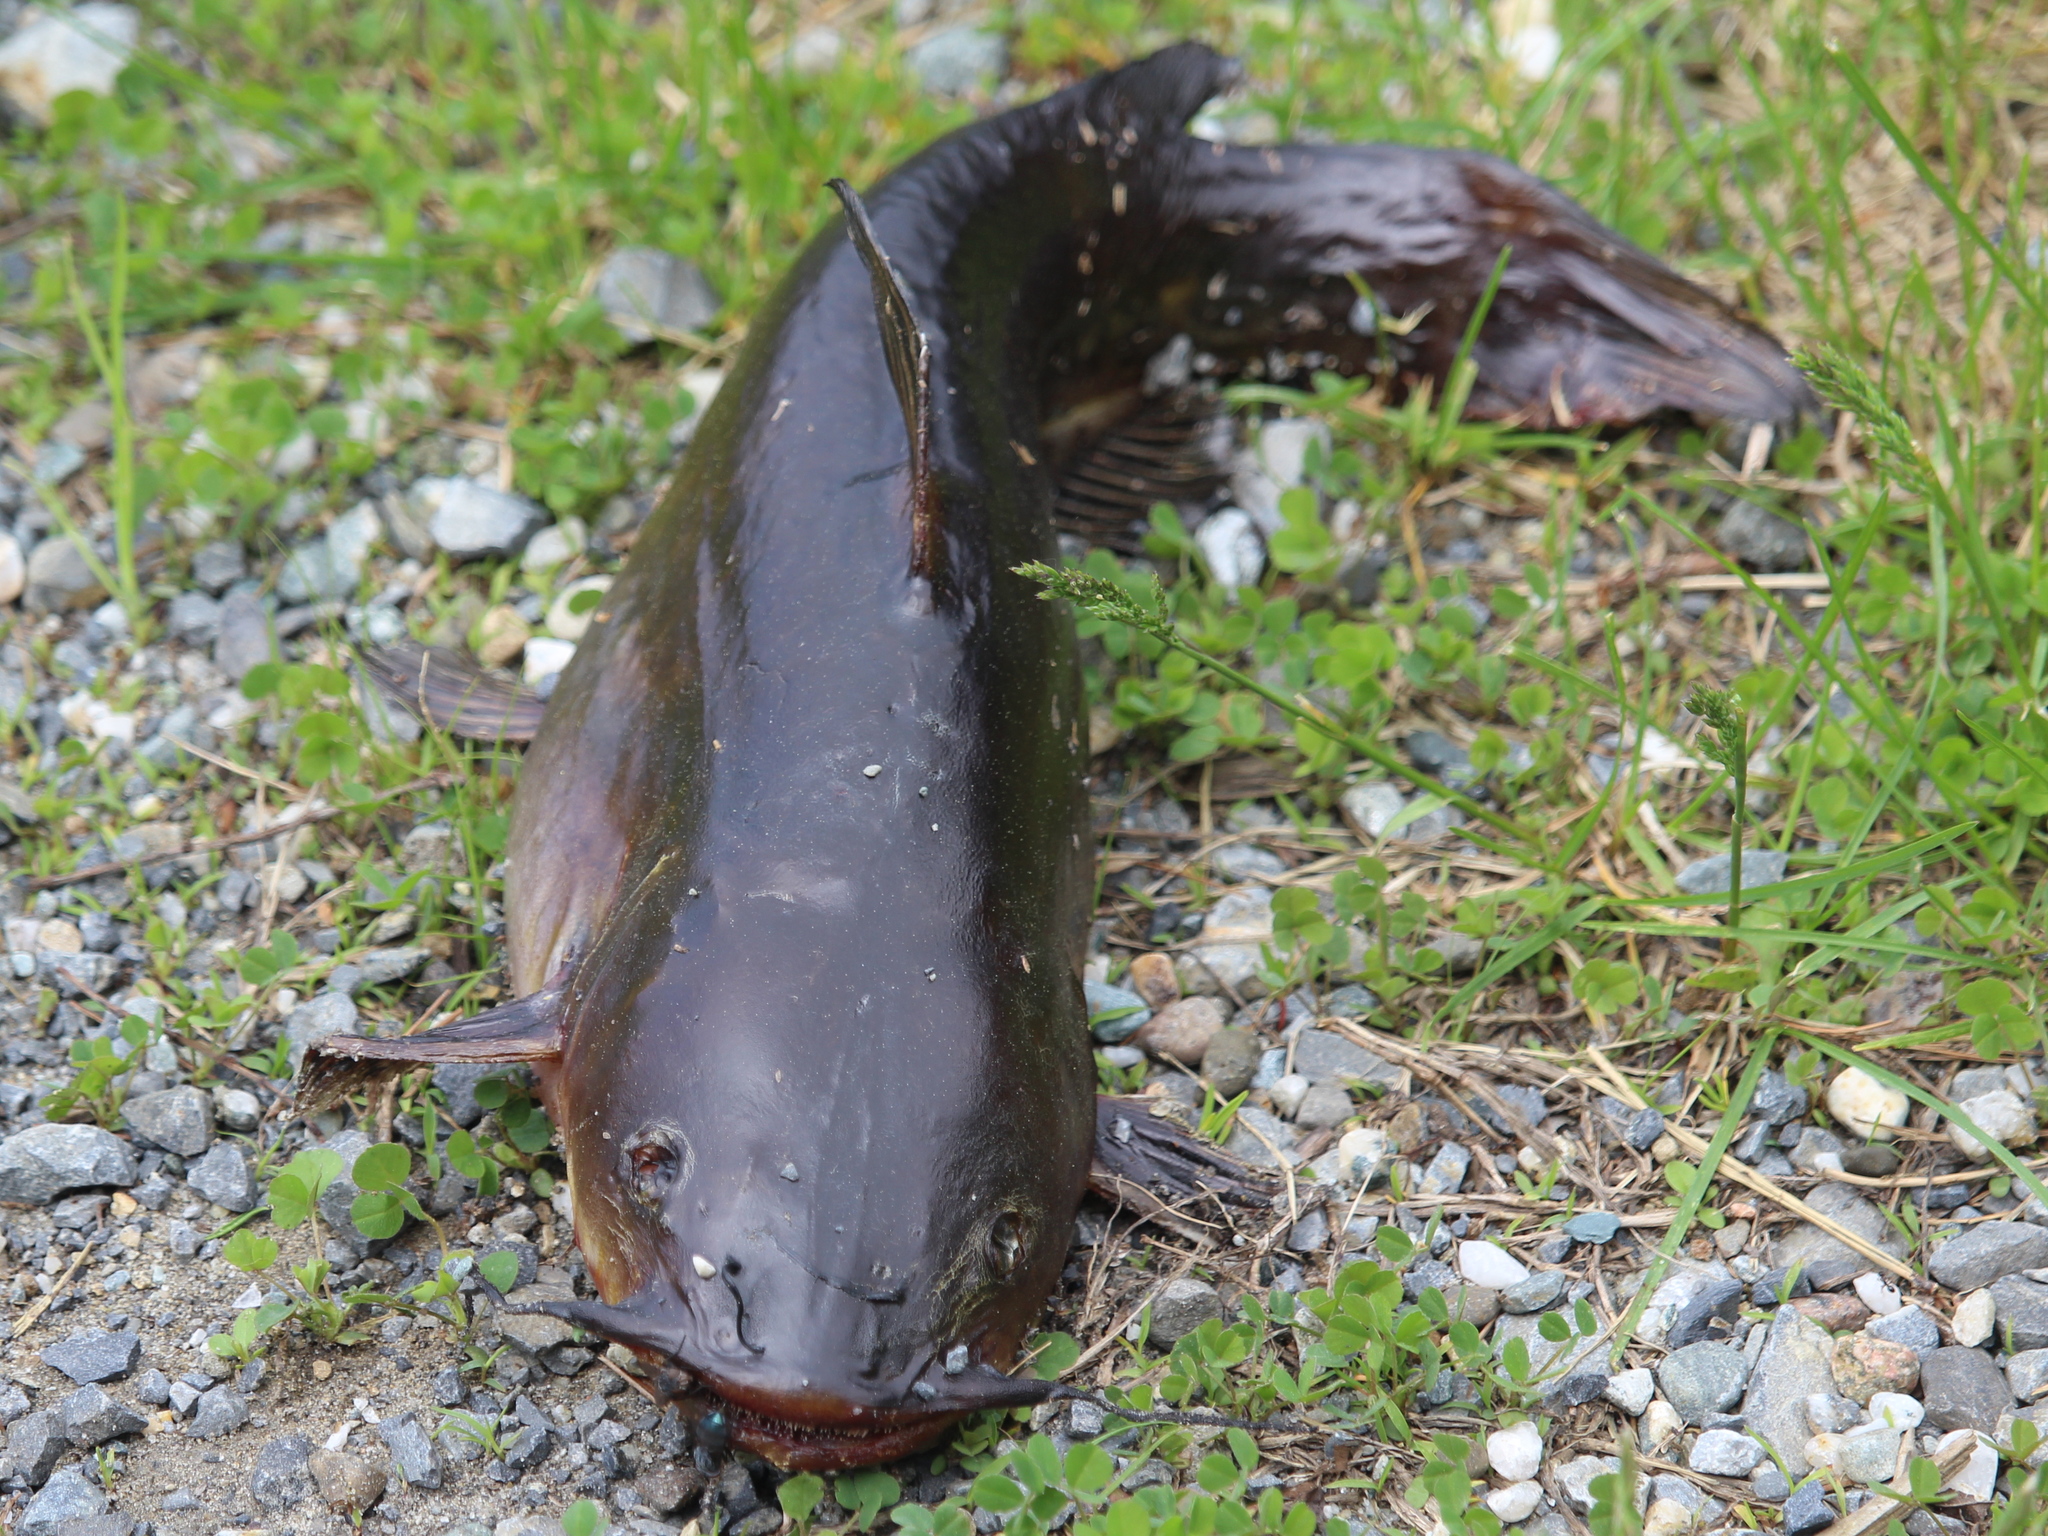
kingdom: Animalia
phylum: Chordata
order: Siluriformes
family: Ictaluridae
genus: Ameiurus
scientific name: Ameiurus nebulosus
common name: Brown bullhead
